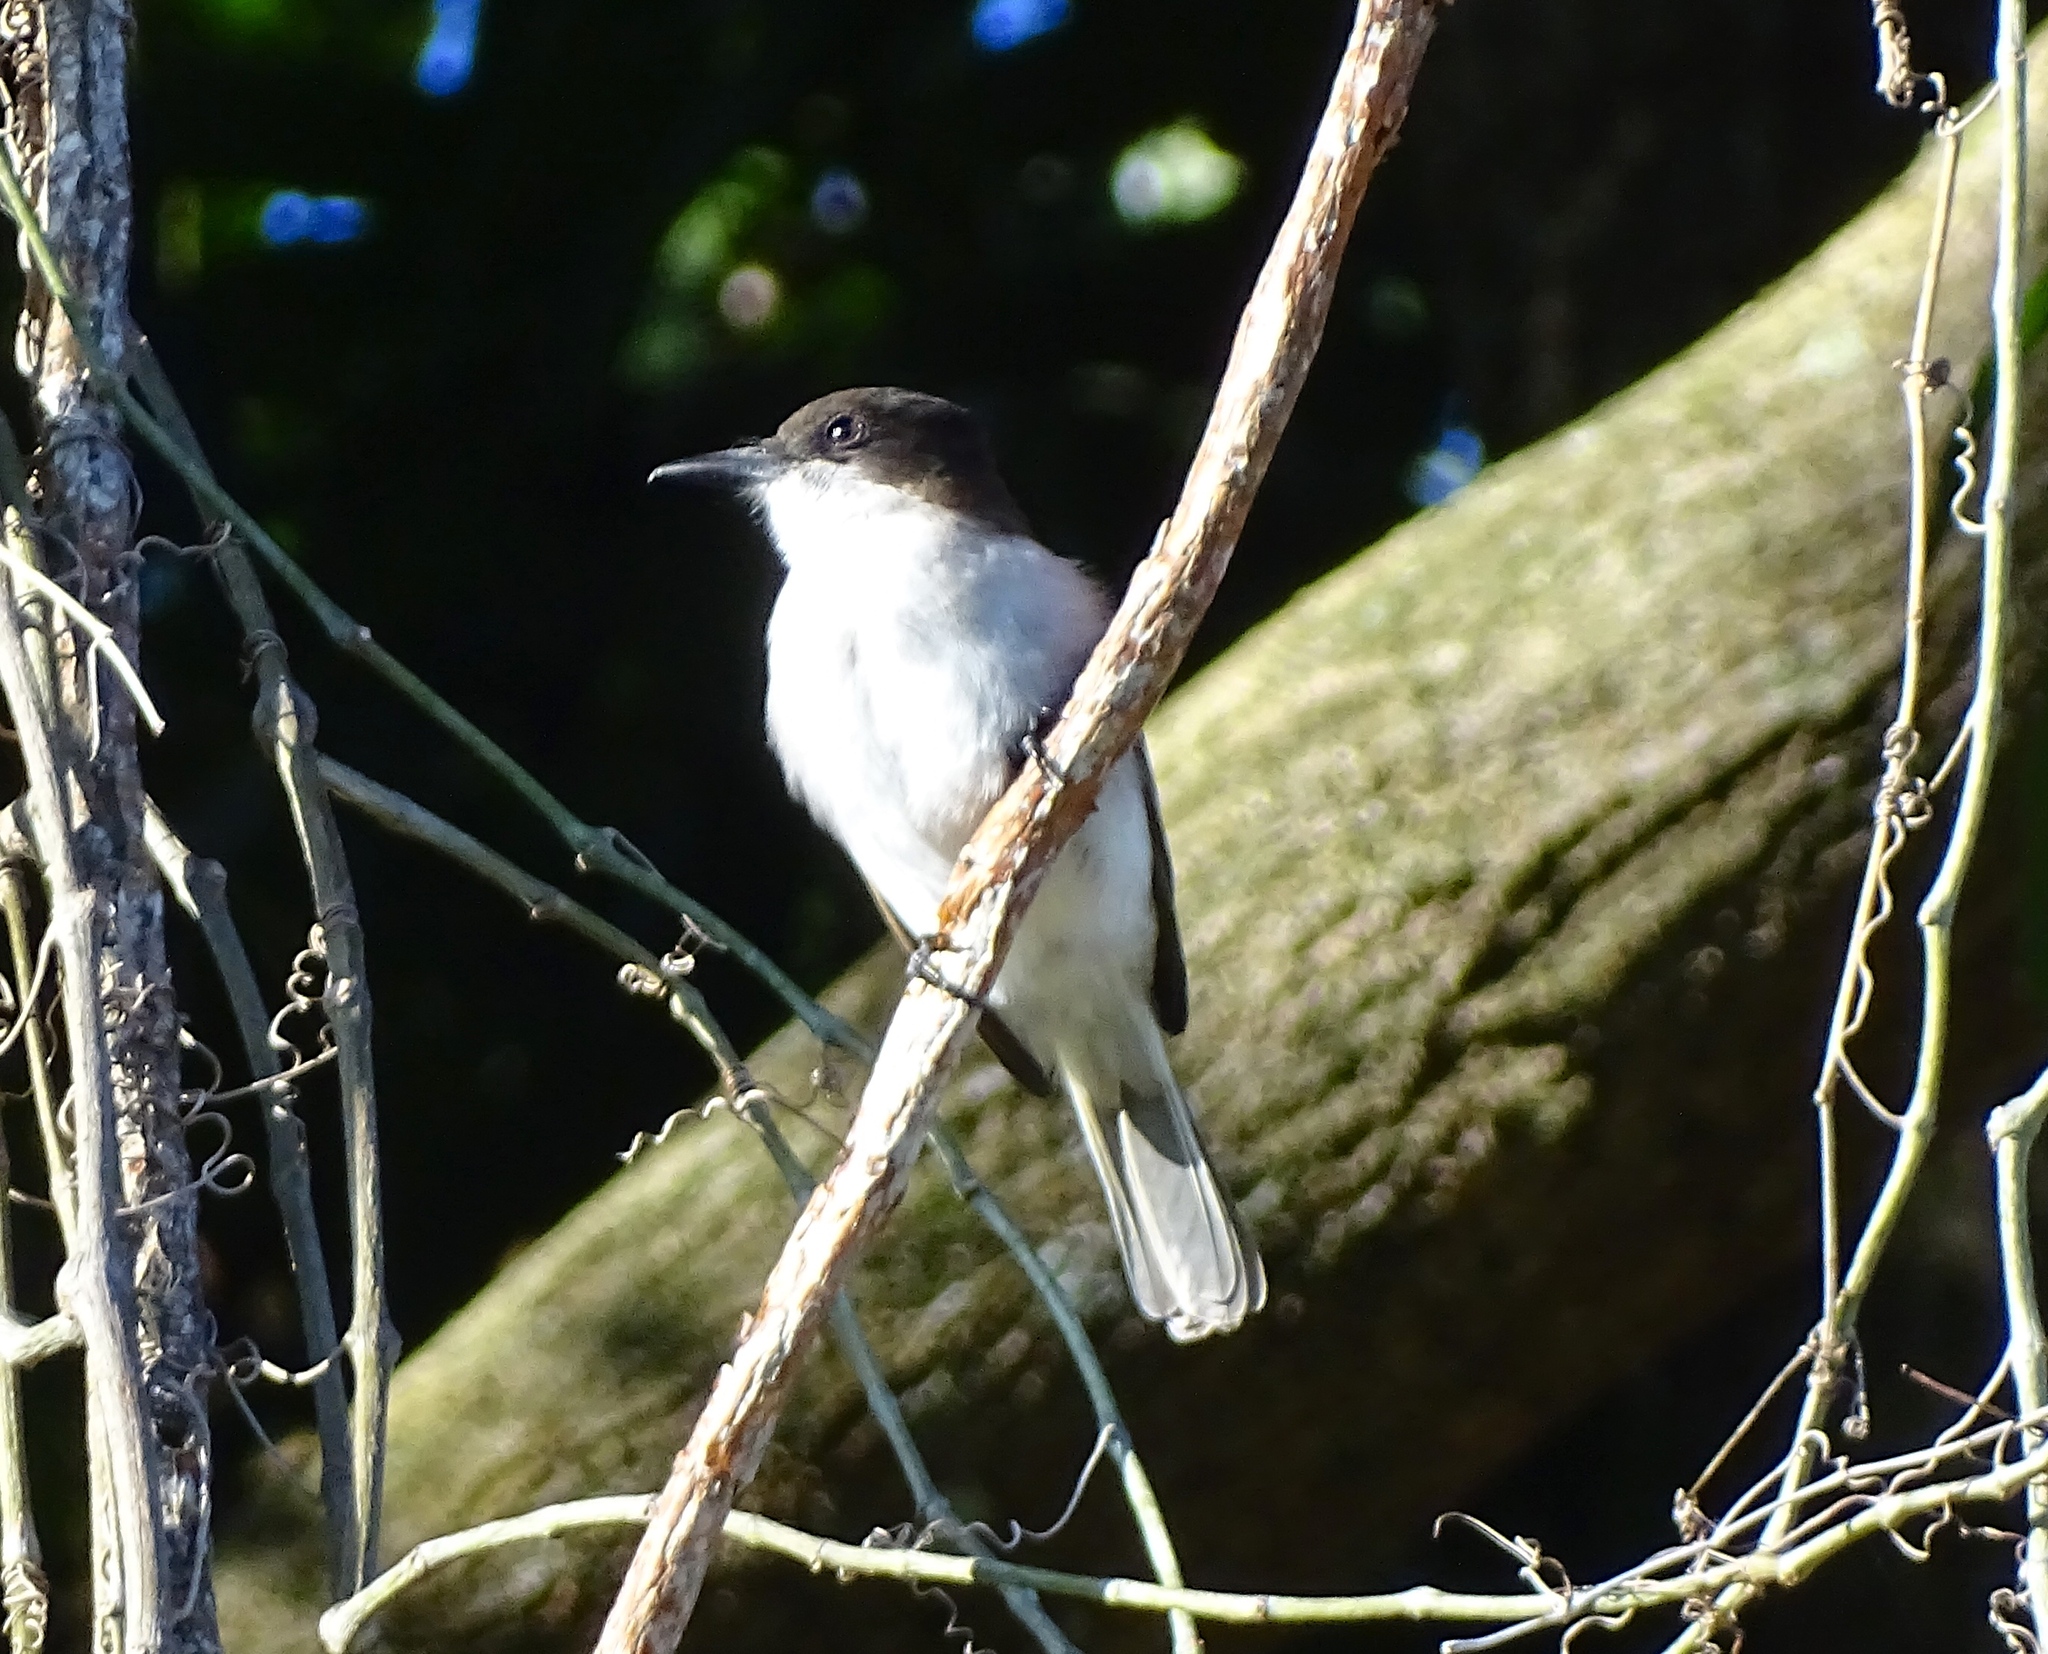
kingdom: Animalia
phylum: Chordata
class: Aves
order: Passeriformes
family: Tyrannidae
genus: Tyrannus
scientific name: Tyrannus caudifasciatus
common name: Loggerhead kingbird
